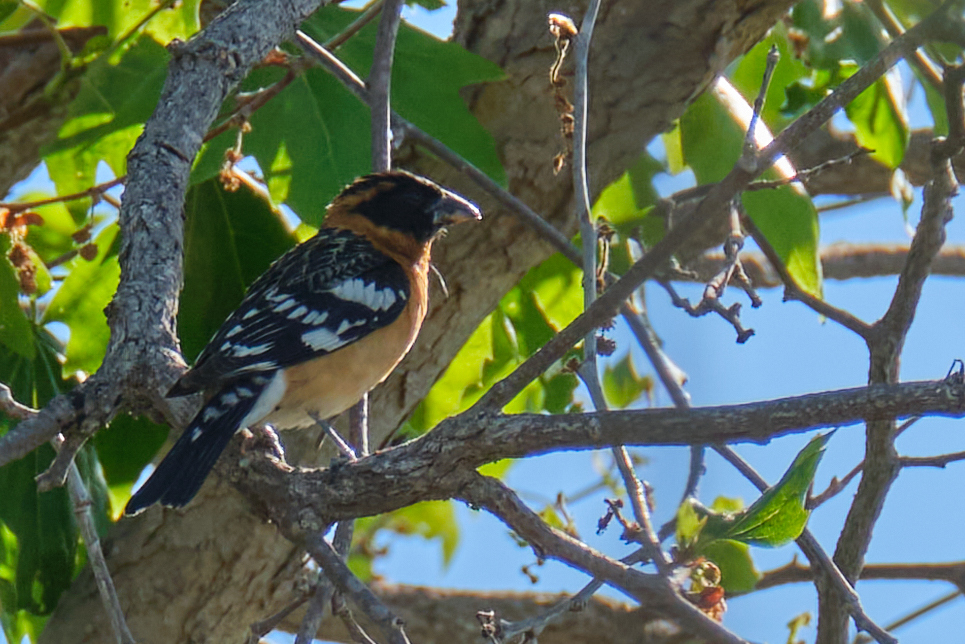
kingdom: Animalia
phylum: Chordata
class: Aves
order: Passeriformes
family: Cardinalidae
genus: Pheucticus
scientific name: Pheucticus melanocephalus
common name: Black-headed grosbeak
